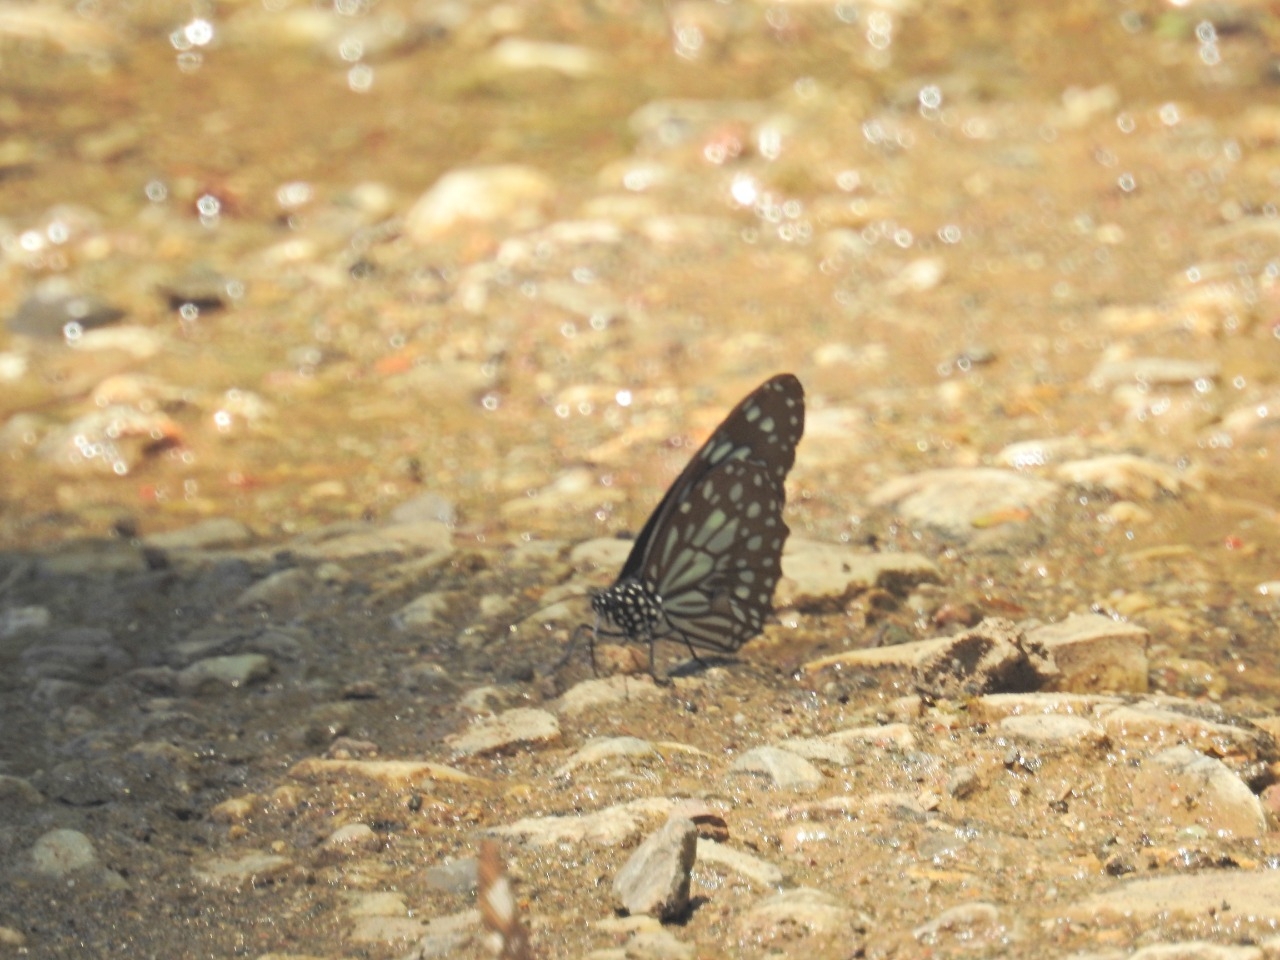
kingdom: Animalia
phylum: Arthropoda
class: Insecta
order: Lepidoptera
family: Nymphalidae
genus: Tirumala
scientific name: Tirumala limniace
